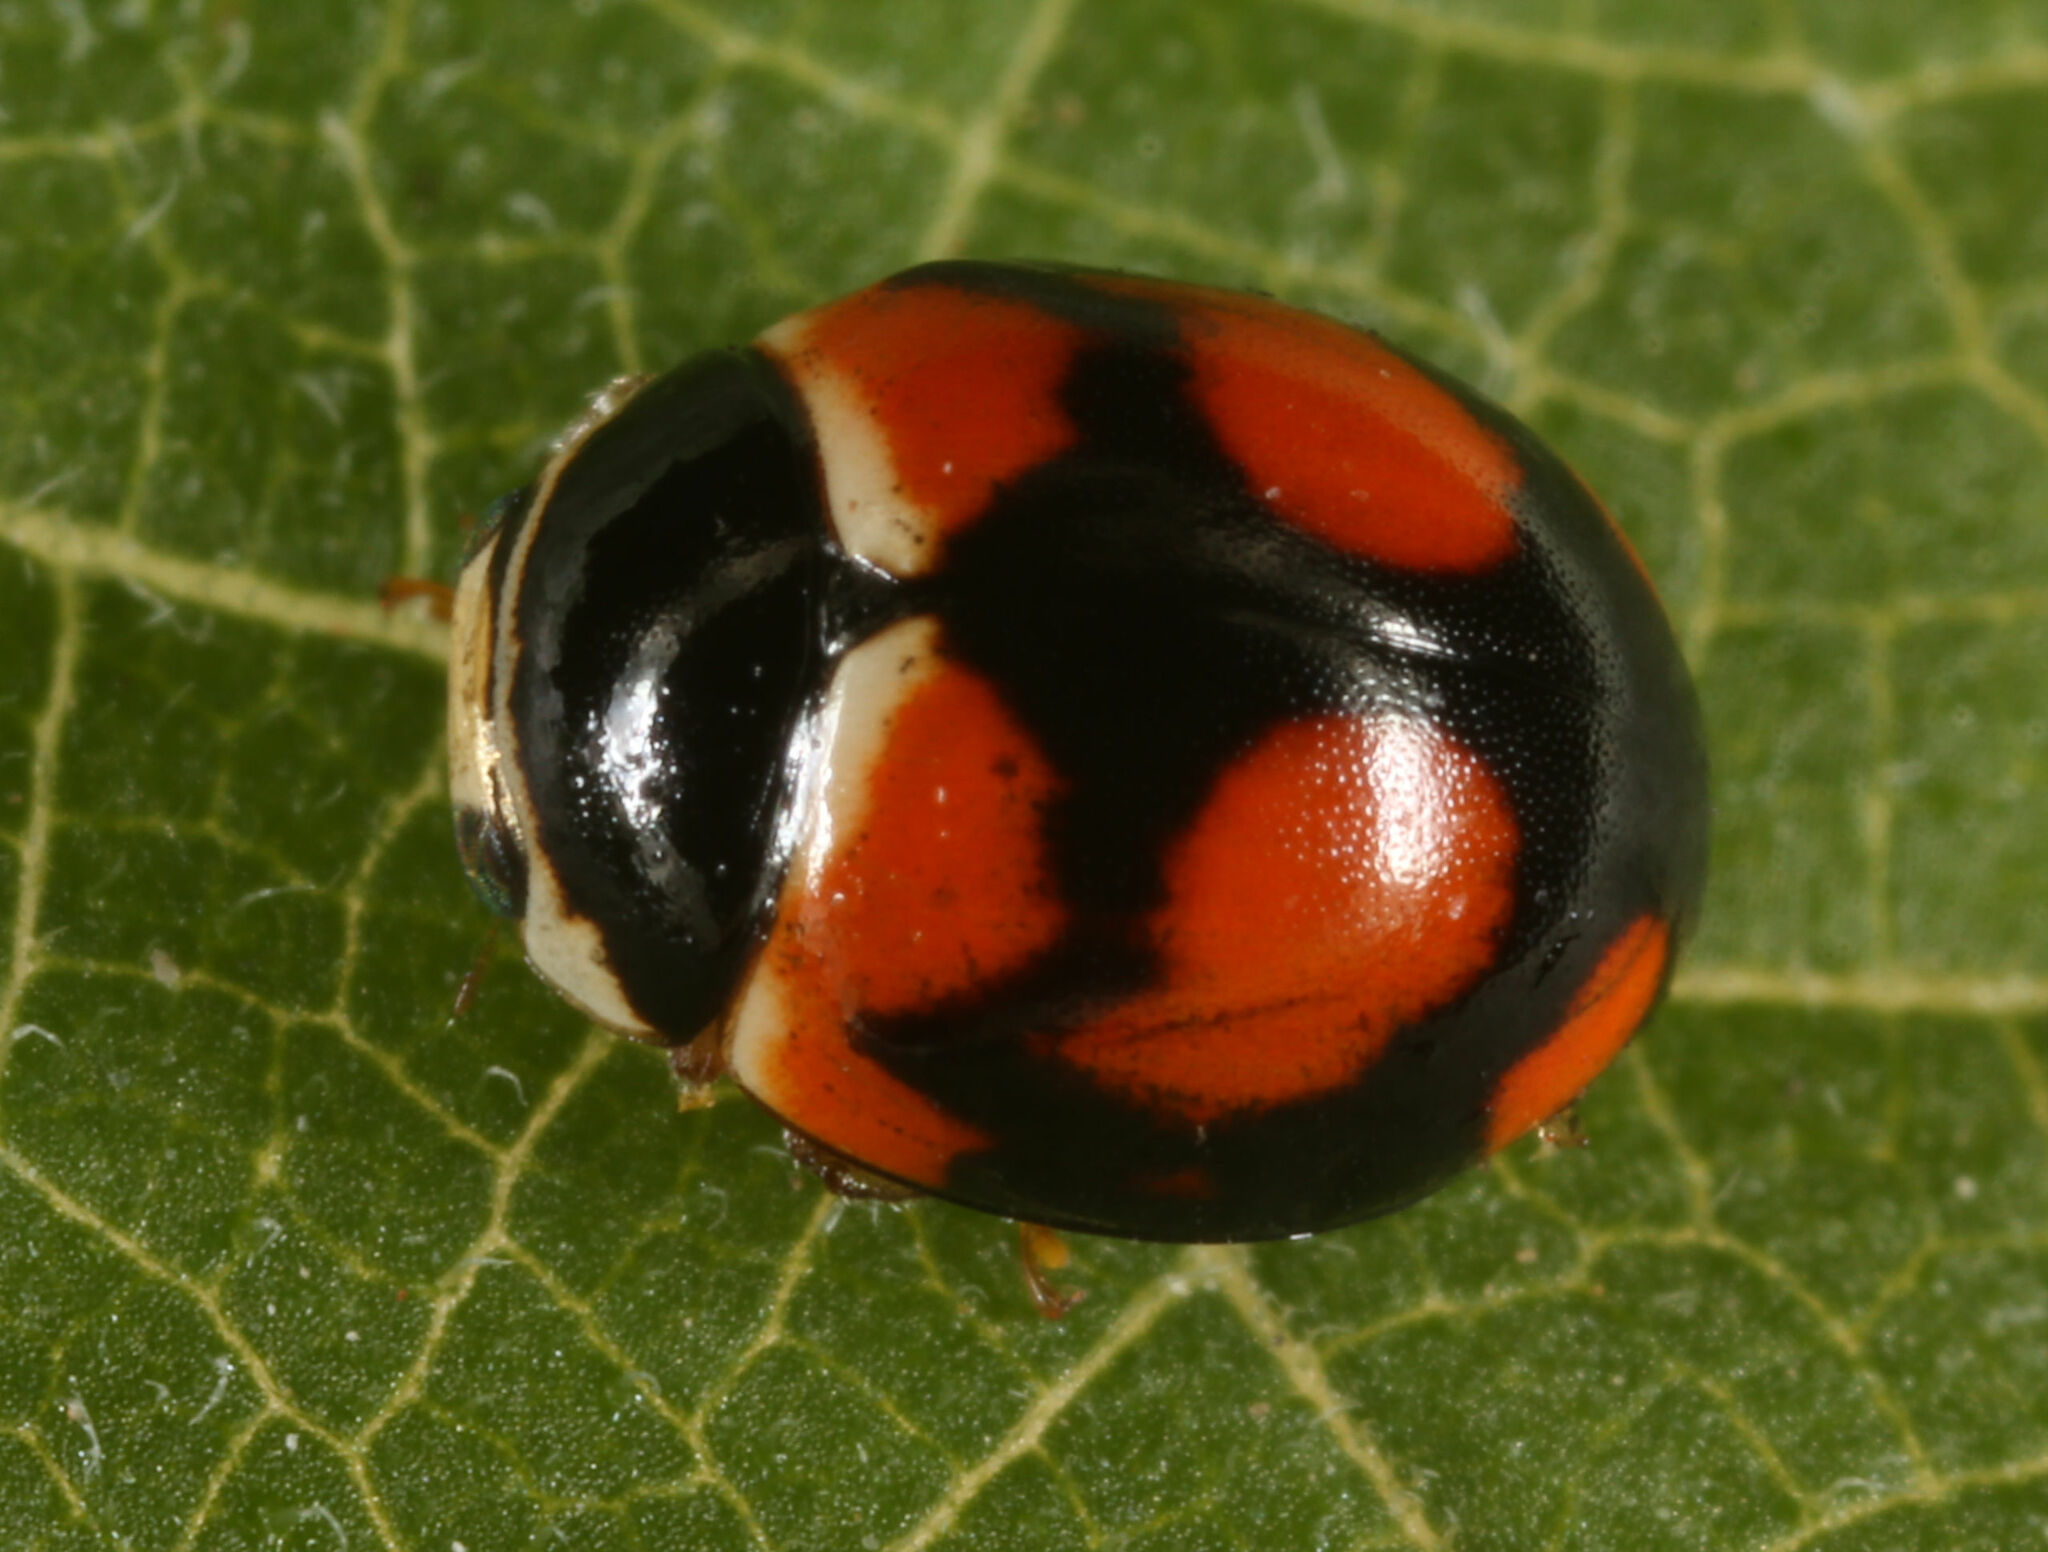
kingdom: Animalia
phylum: Arthropoda
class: Insecta
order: Coleoptera
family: Coccinellidae
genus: Brachiacantha
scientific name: Brachiacantha arizonica
